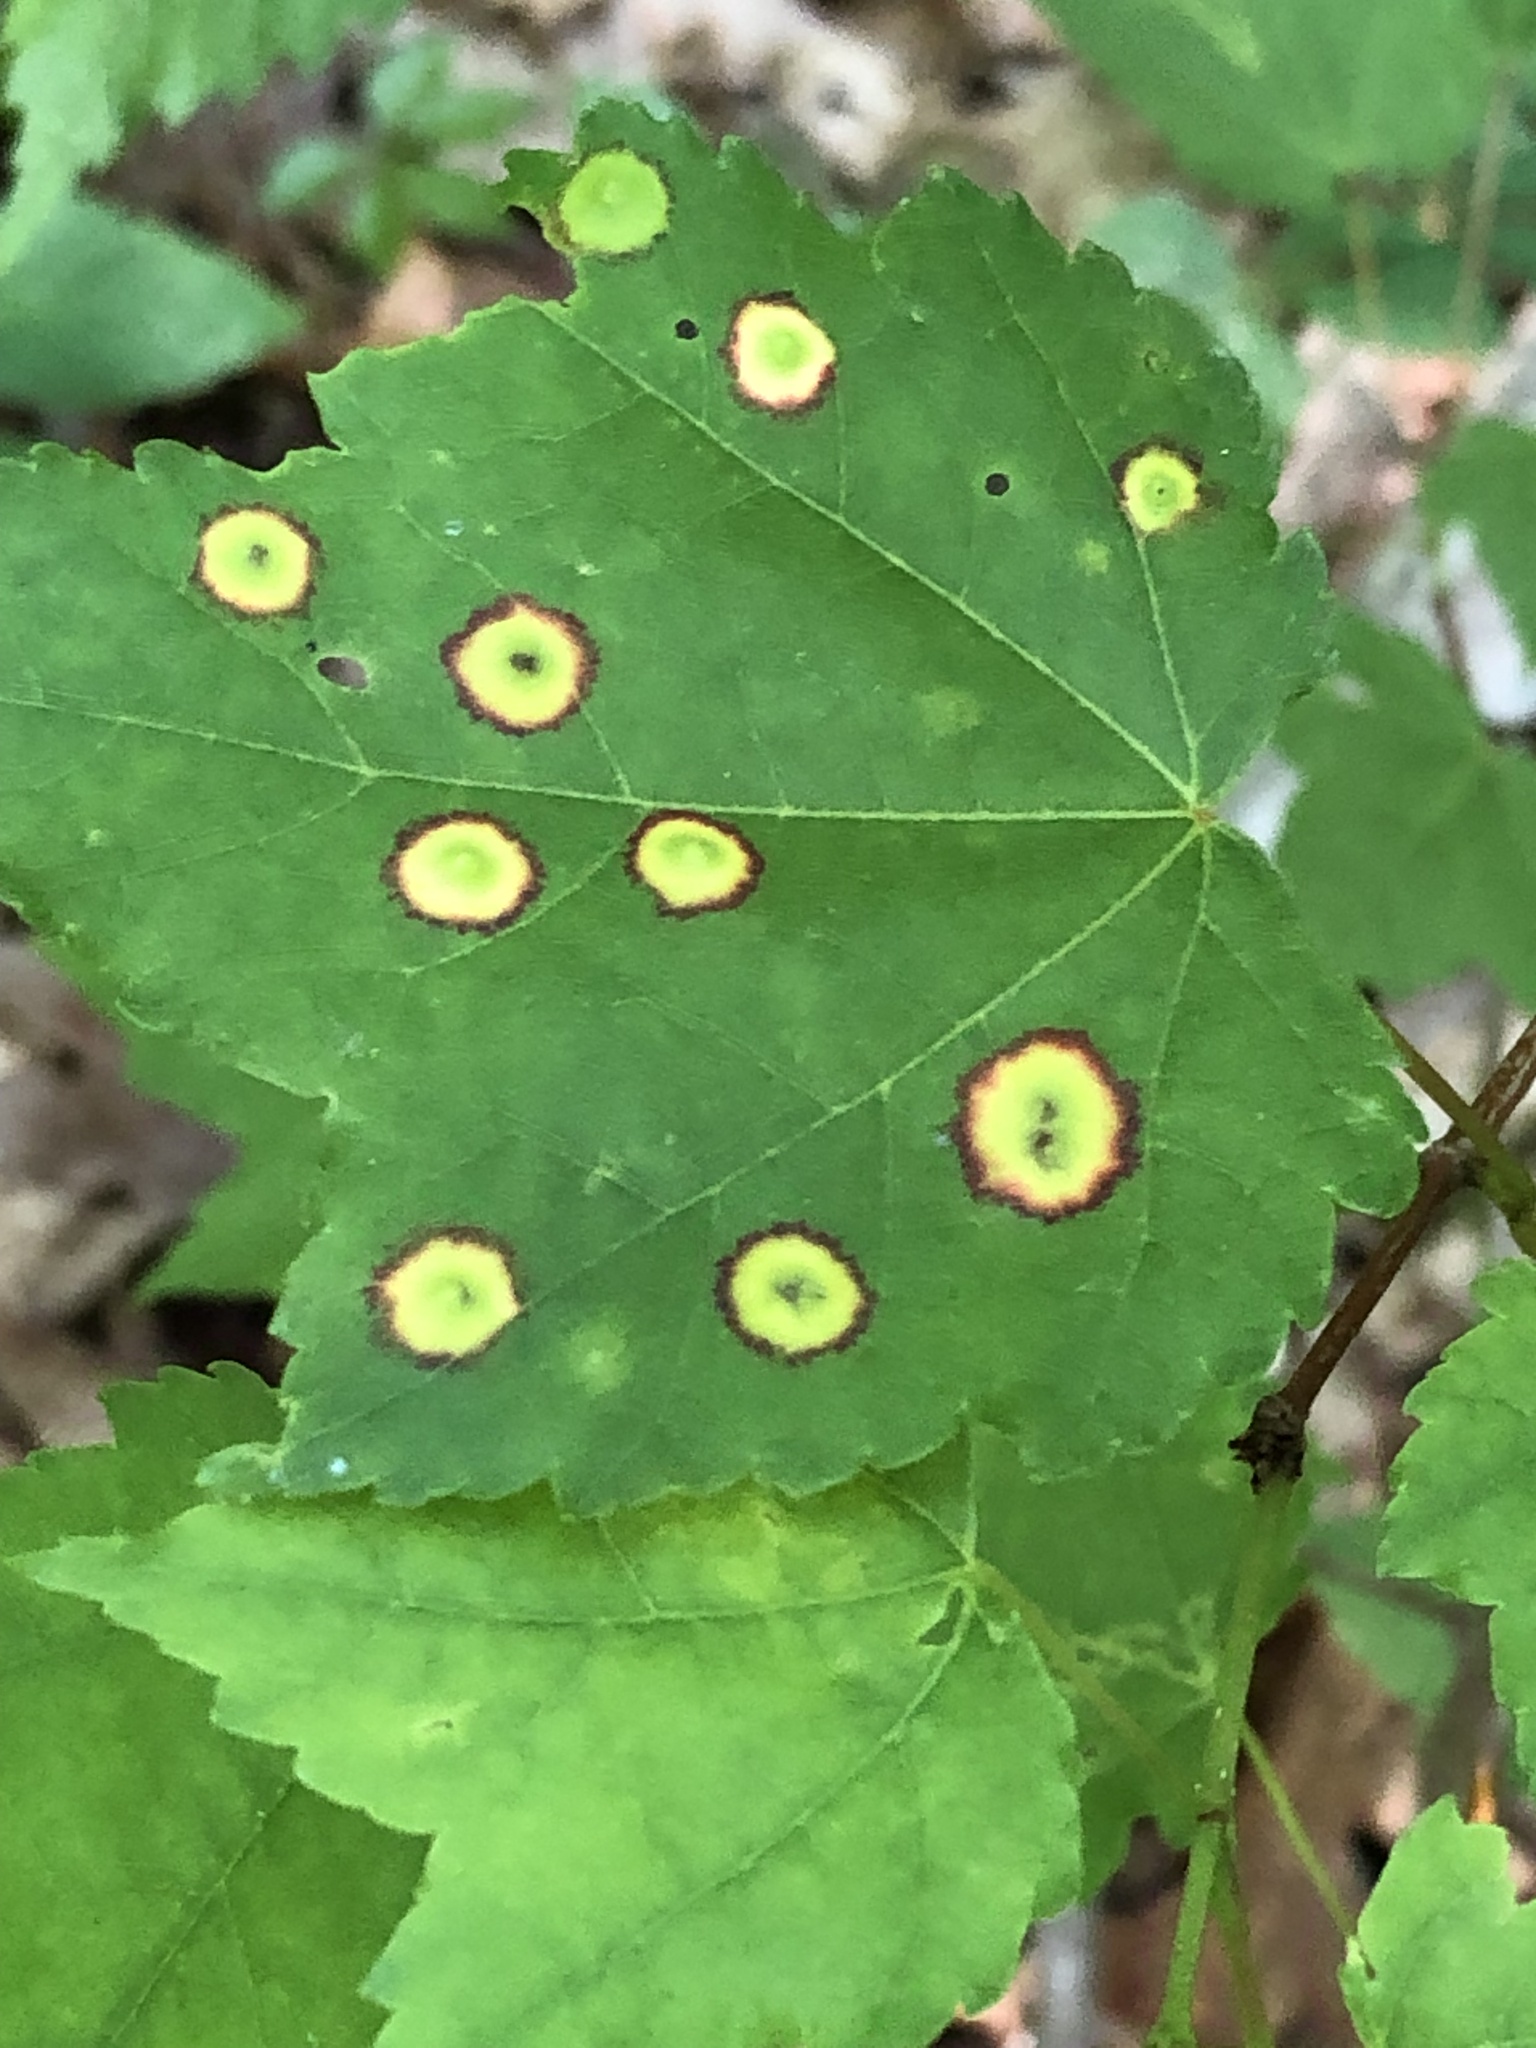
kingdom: Animalia
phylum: Arthropoda
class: Insecta
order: Diptera
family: Cecidomyiidae
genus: Acericecis
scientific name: Acericecis ocellaris
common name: Ocellate gall midge
